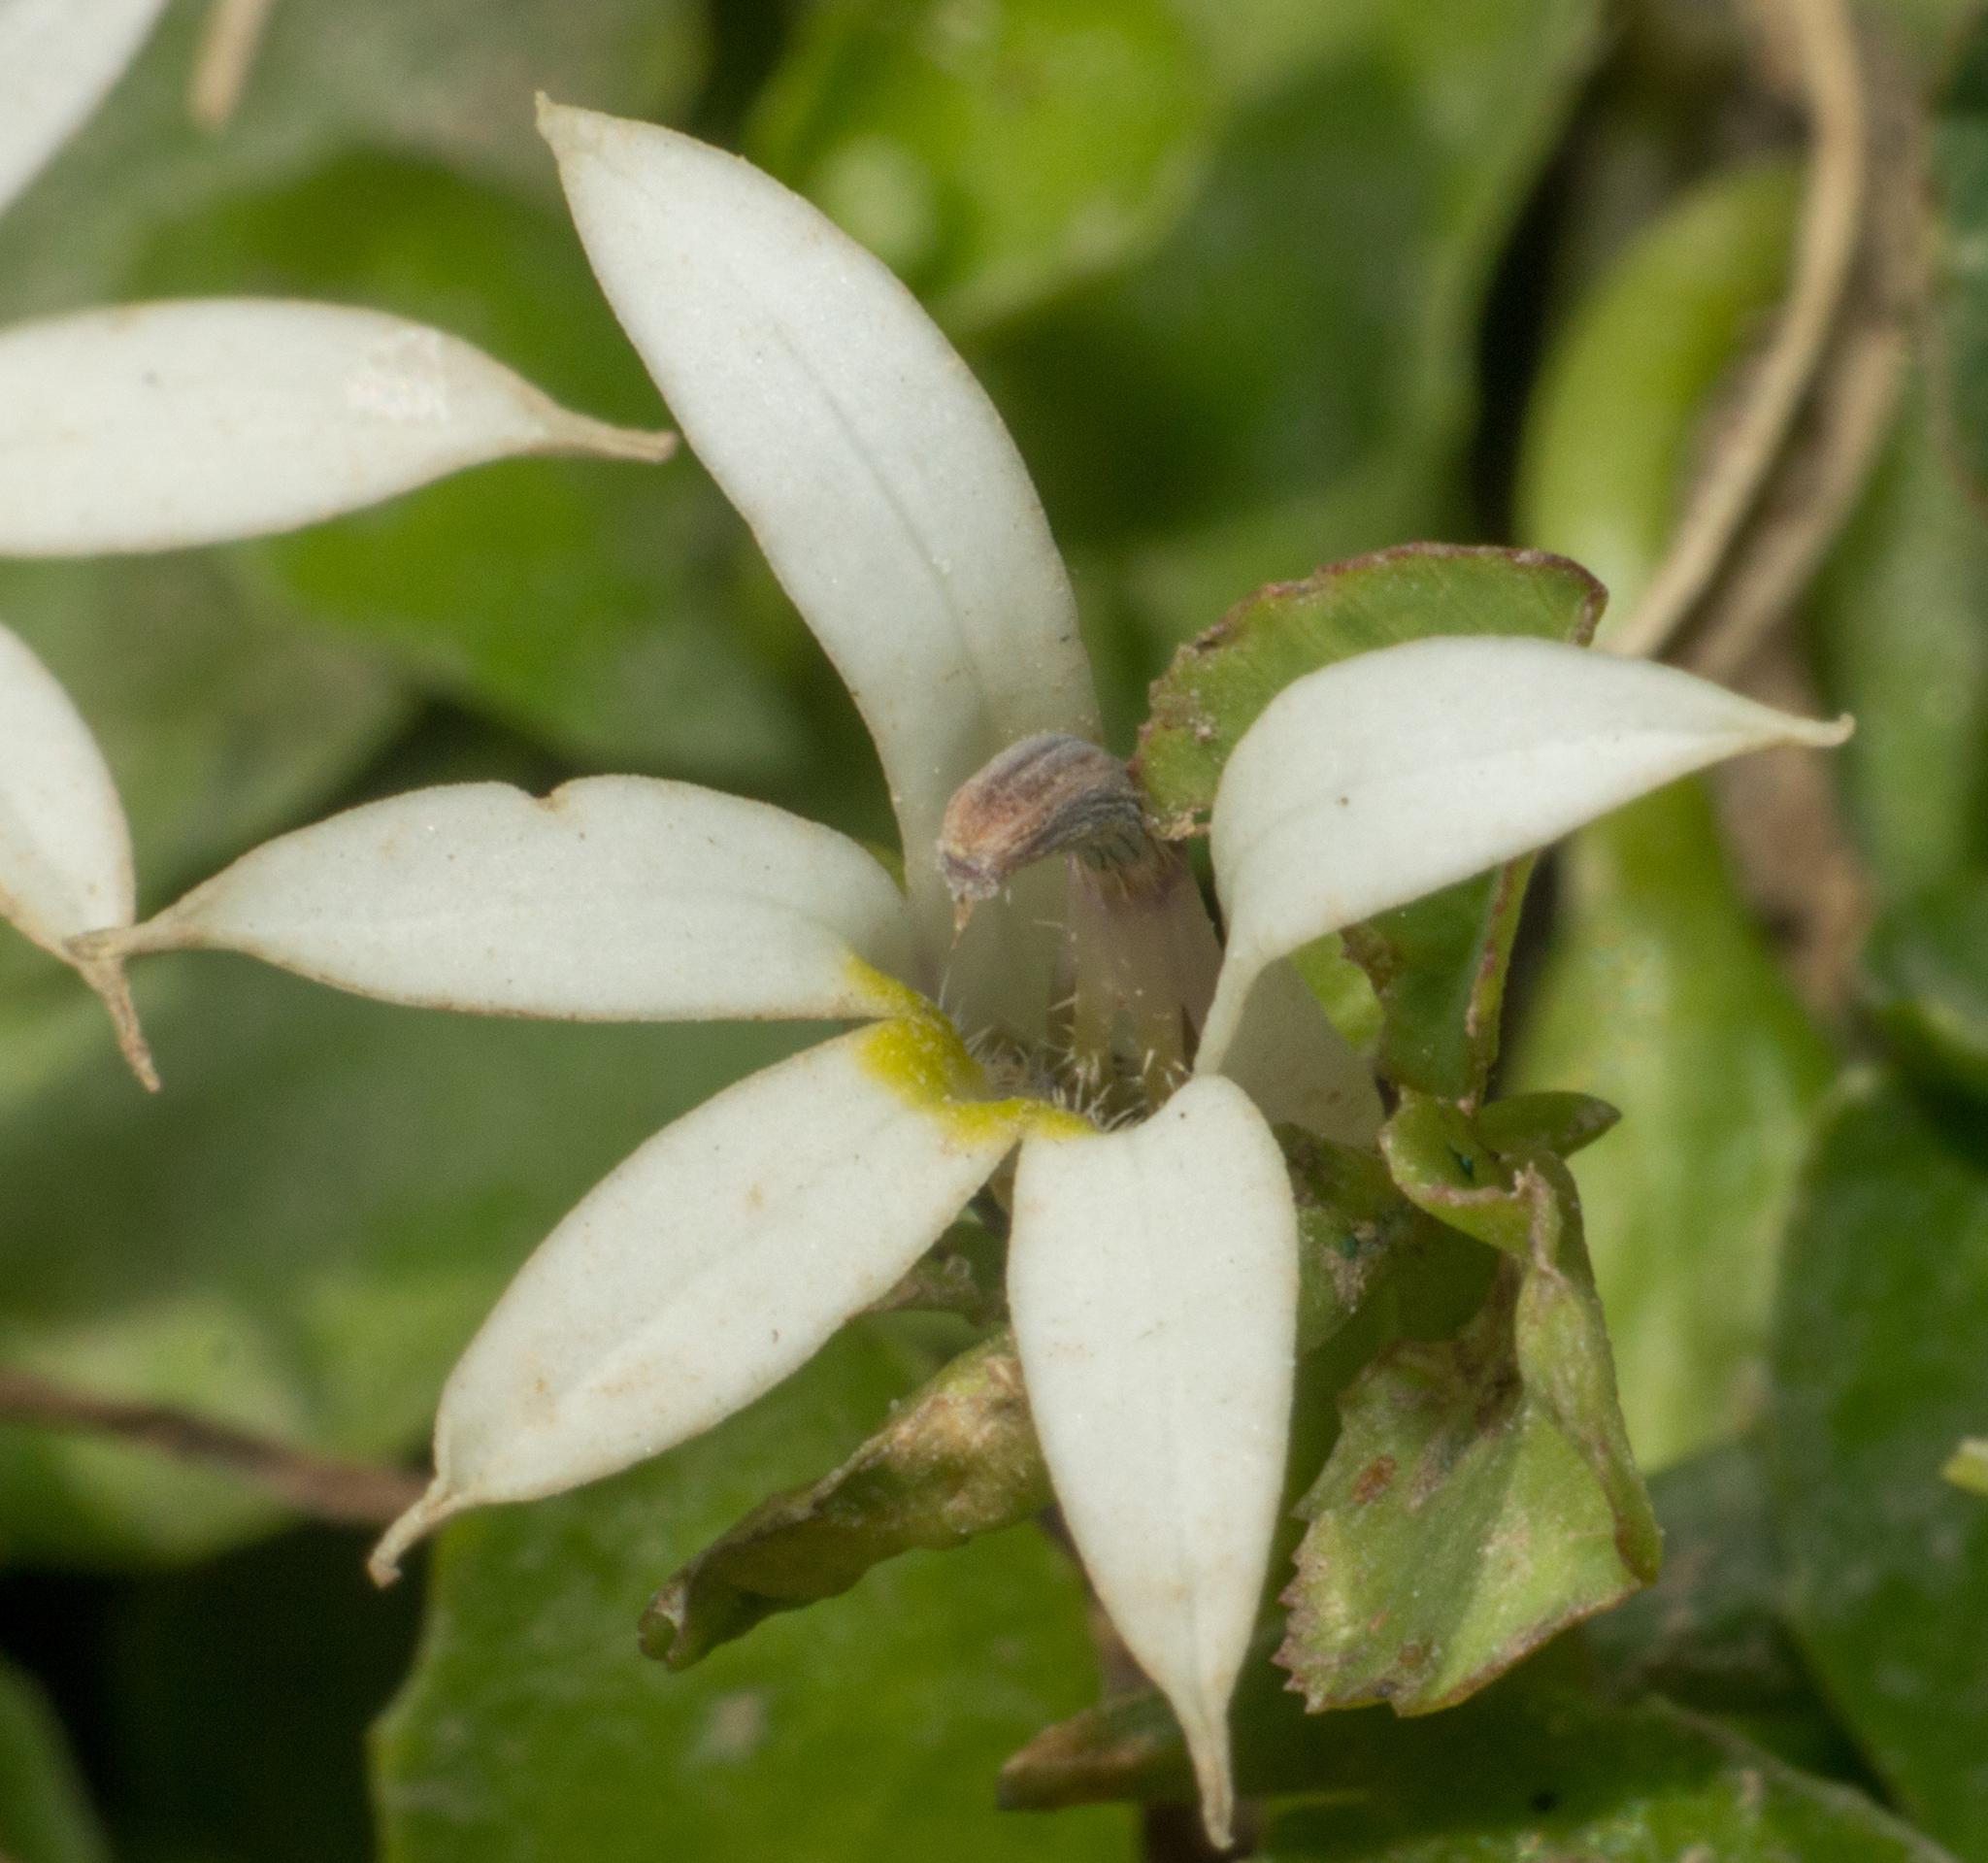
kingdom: Plantae
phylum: Tracheophyta
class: Magnoliopsida
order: Asterales
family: Campanulaceae
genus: Lobelia
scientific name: Lobelia hederacea
